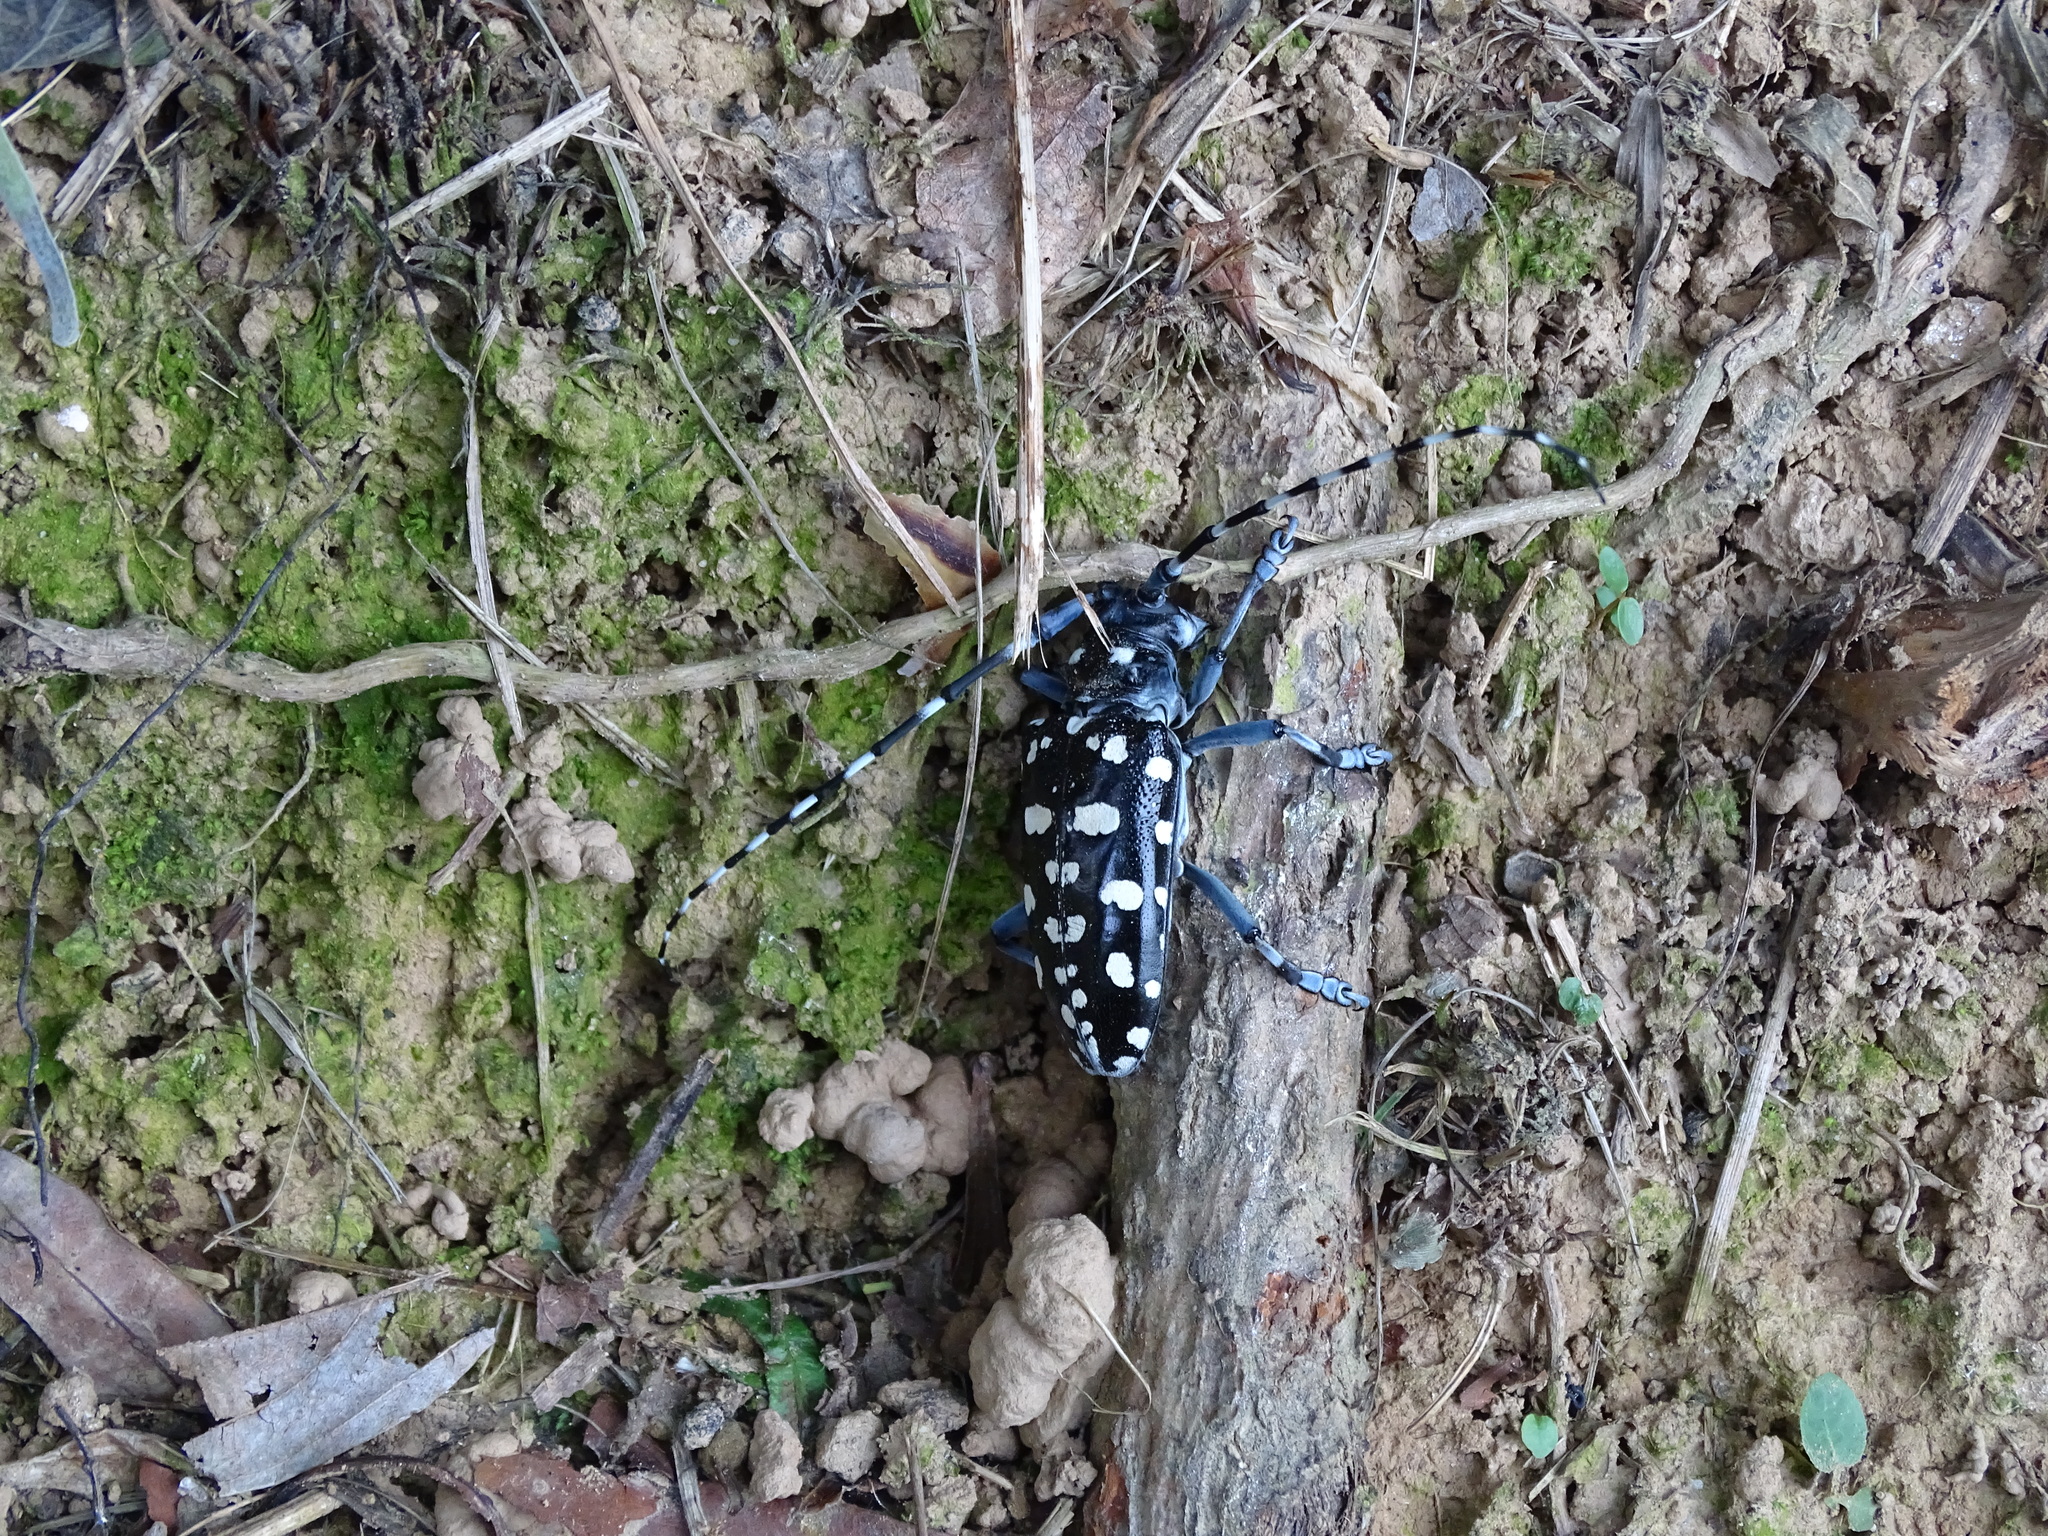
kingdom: Animalia
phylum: Arthropoda
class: Insecta
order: Coleoptera
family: Cerambycidae
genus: Anoplophora
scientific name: Anoplophora macularia
